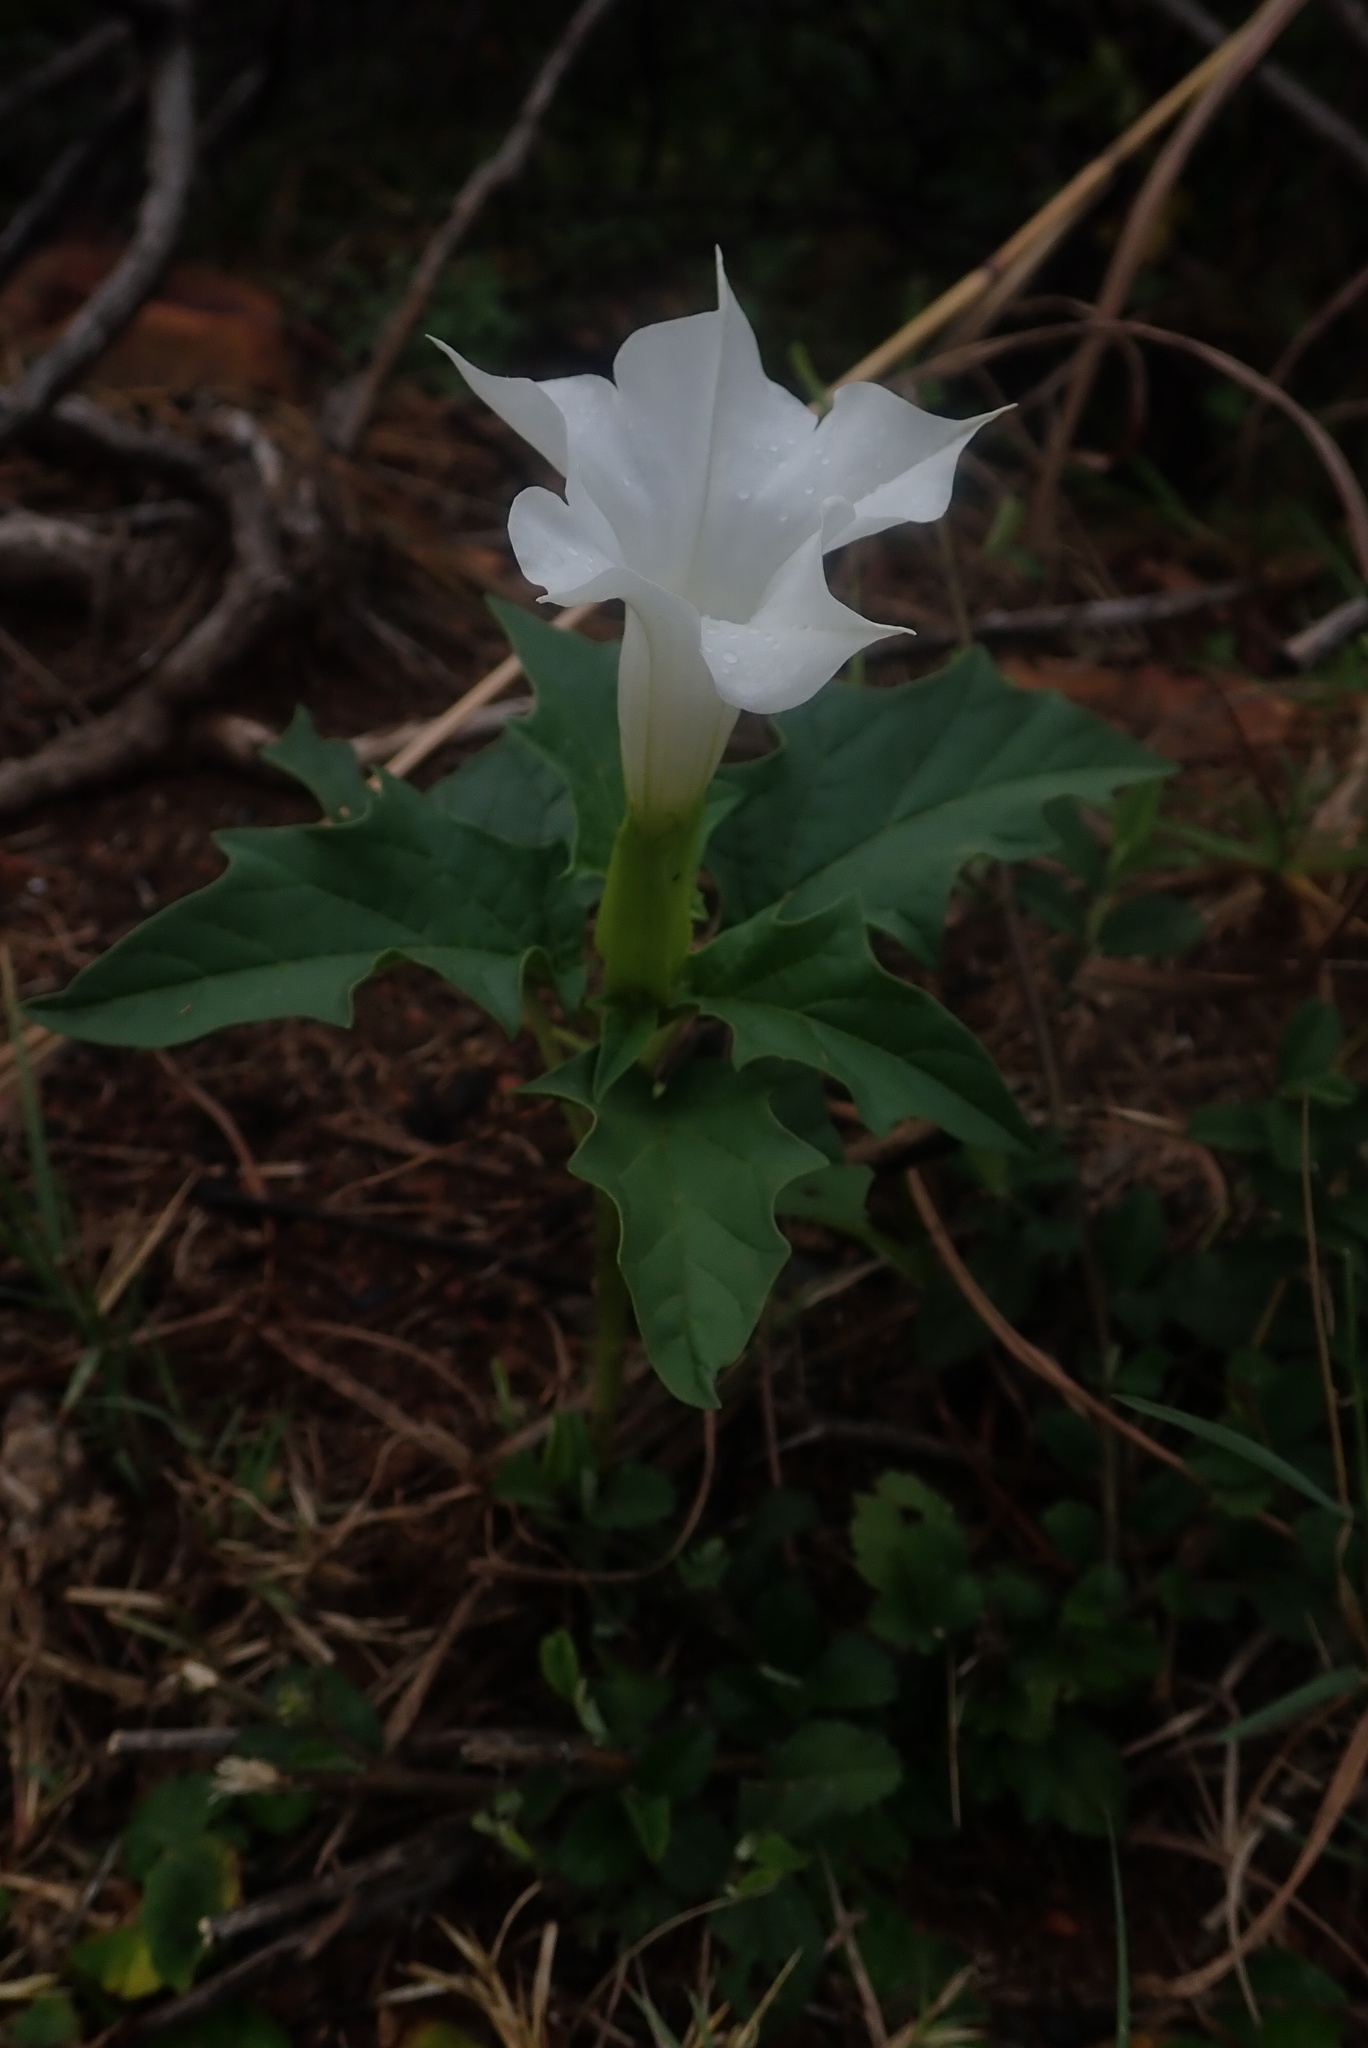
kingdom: Plantae
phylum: Tracheophyta
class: Magnoliopsida
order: Solanales
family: Solanaceae
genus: Datura
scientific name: Datura stramonium
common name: Thorn-apple
